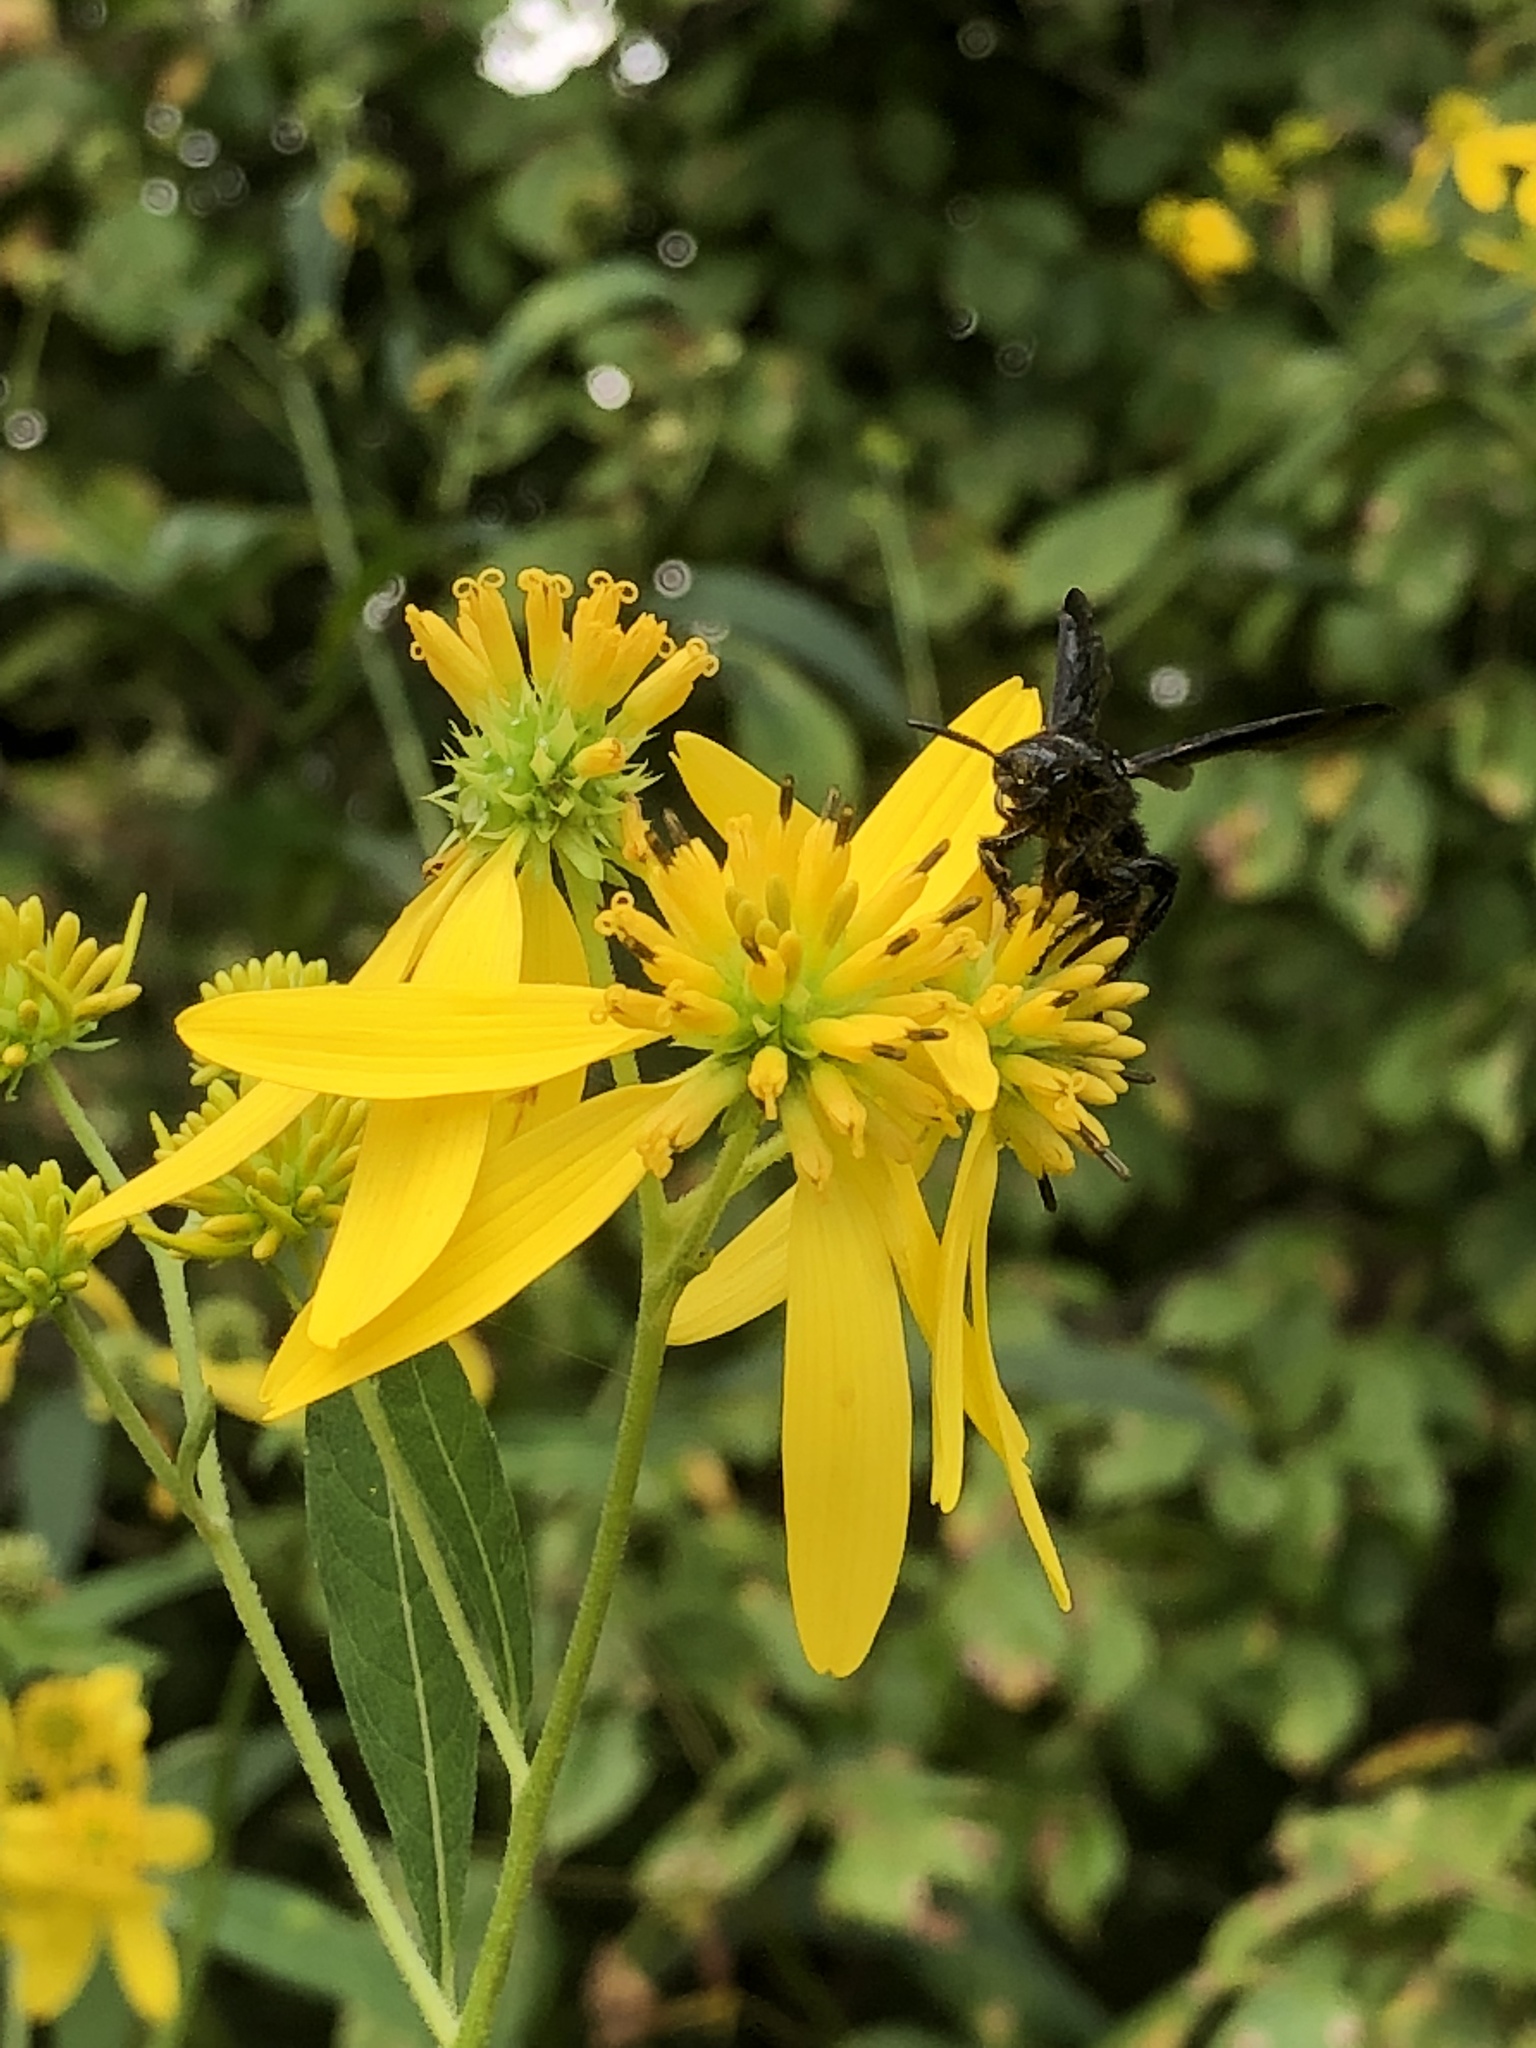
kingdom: Animalia
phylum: Arthropoda
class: Insecta
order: Hymenoptera
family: Scoliidae
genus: Scolia
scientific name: Scolia dubia
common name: Blue-winged scoliid wasp
